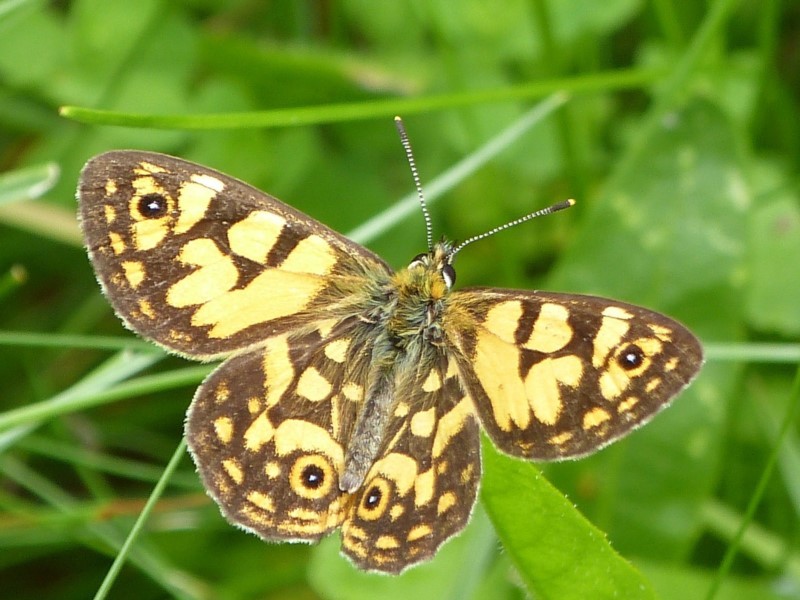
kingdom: Animalia
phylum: Arthropoda
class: Insecta
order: Lepidoptera
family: Nymphalidae
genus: Oreixenica
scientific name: Oreixenica lathoniella
